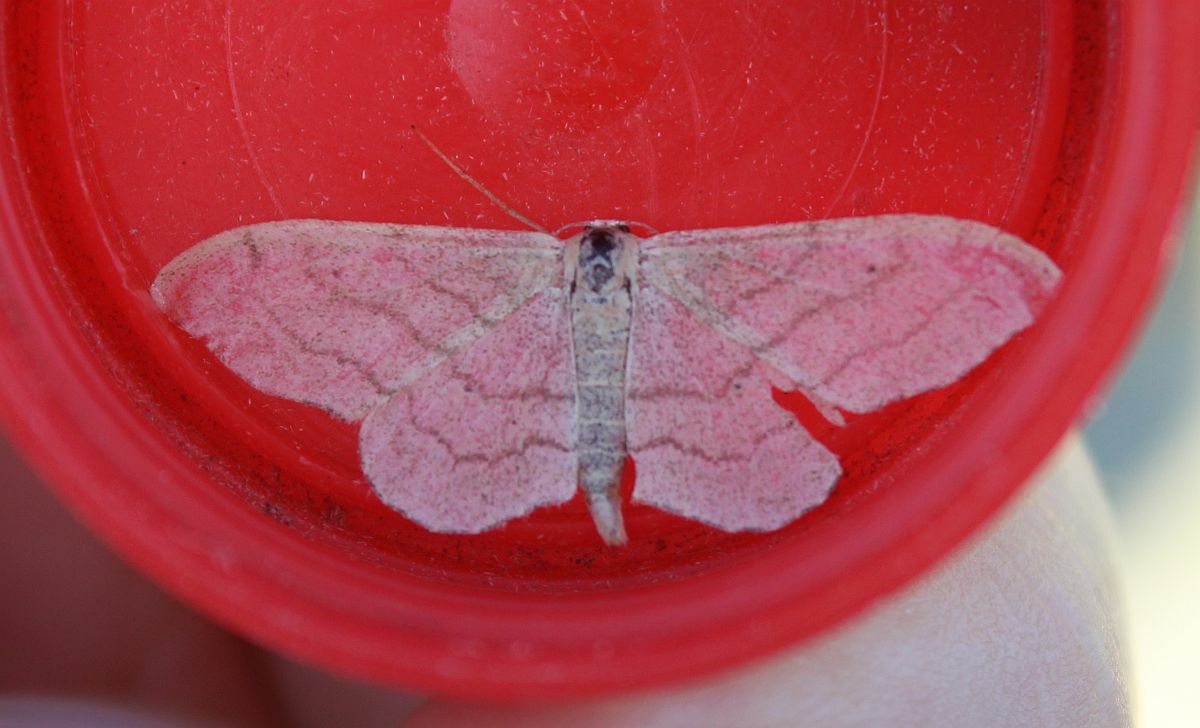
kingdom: Animalia
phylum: Arthropoda
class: Insecta
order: Lepidoptera
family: Geometridae
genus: Idaea
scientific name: Idaea aversata
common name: Riband wave
